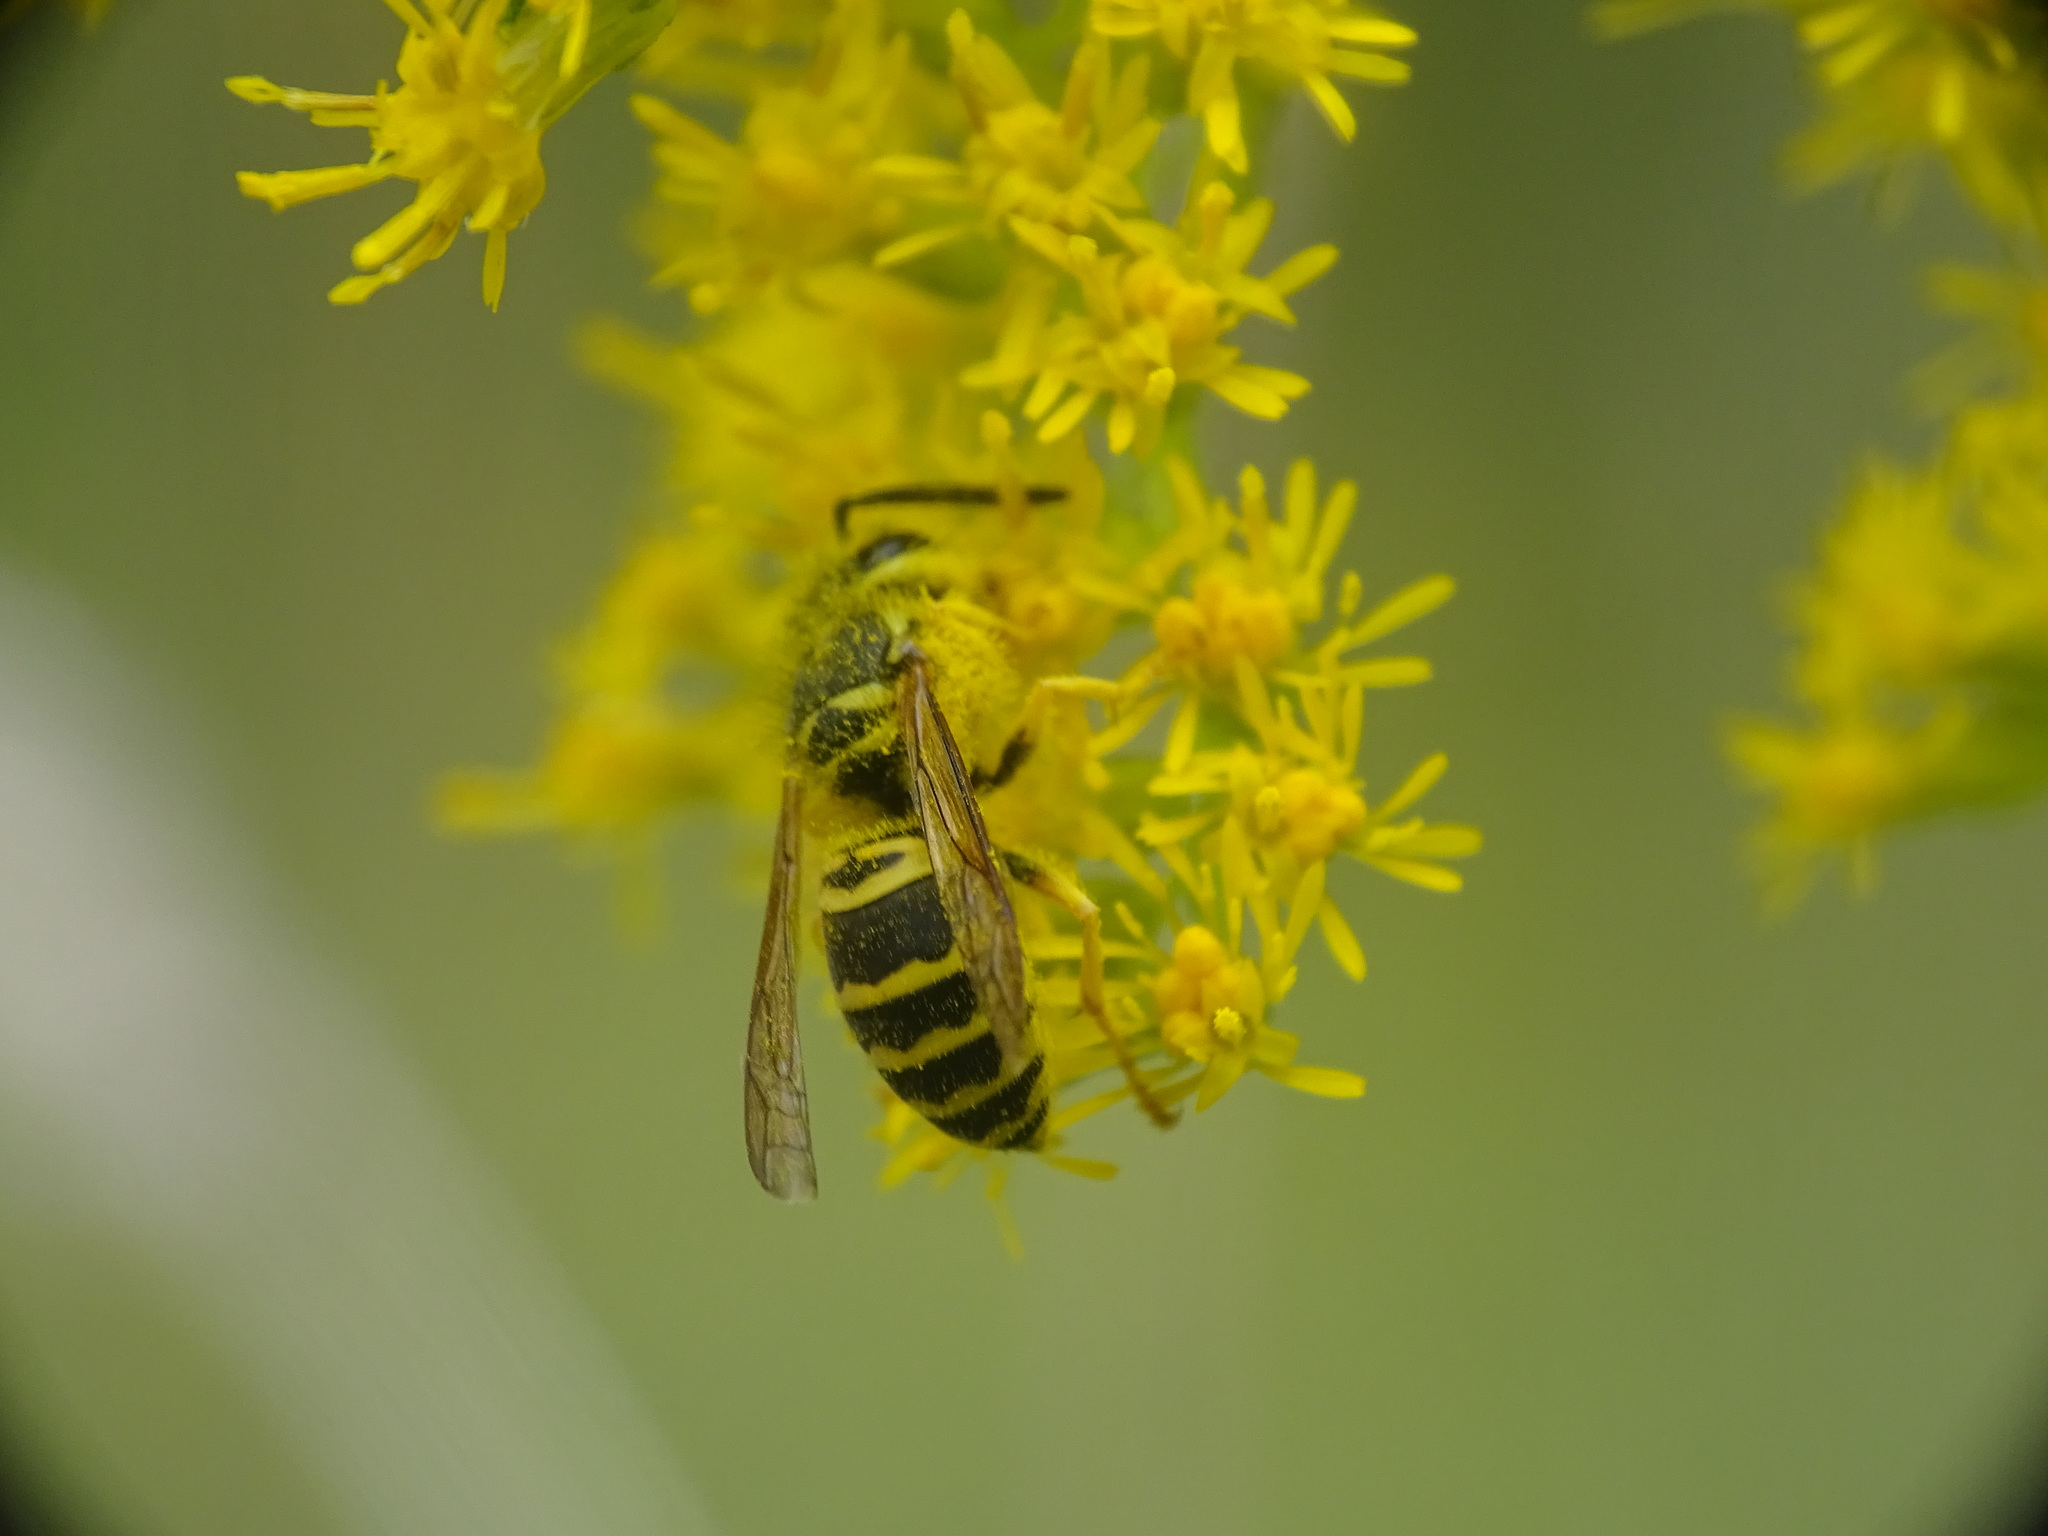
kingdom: Animalia
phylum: Arthropoda
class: Insecta
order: Hymenoptera
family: Vespidae
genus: Vespula
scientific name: Vespula maculifrons
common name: Eastern yellowjacket
